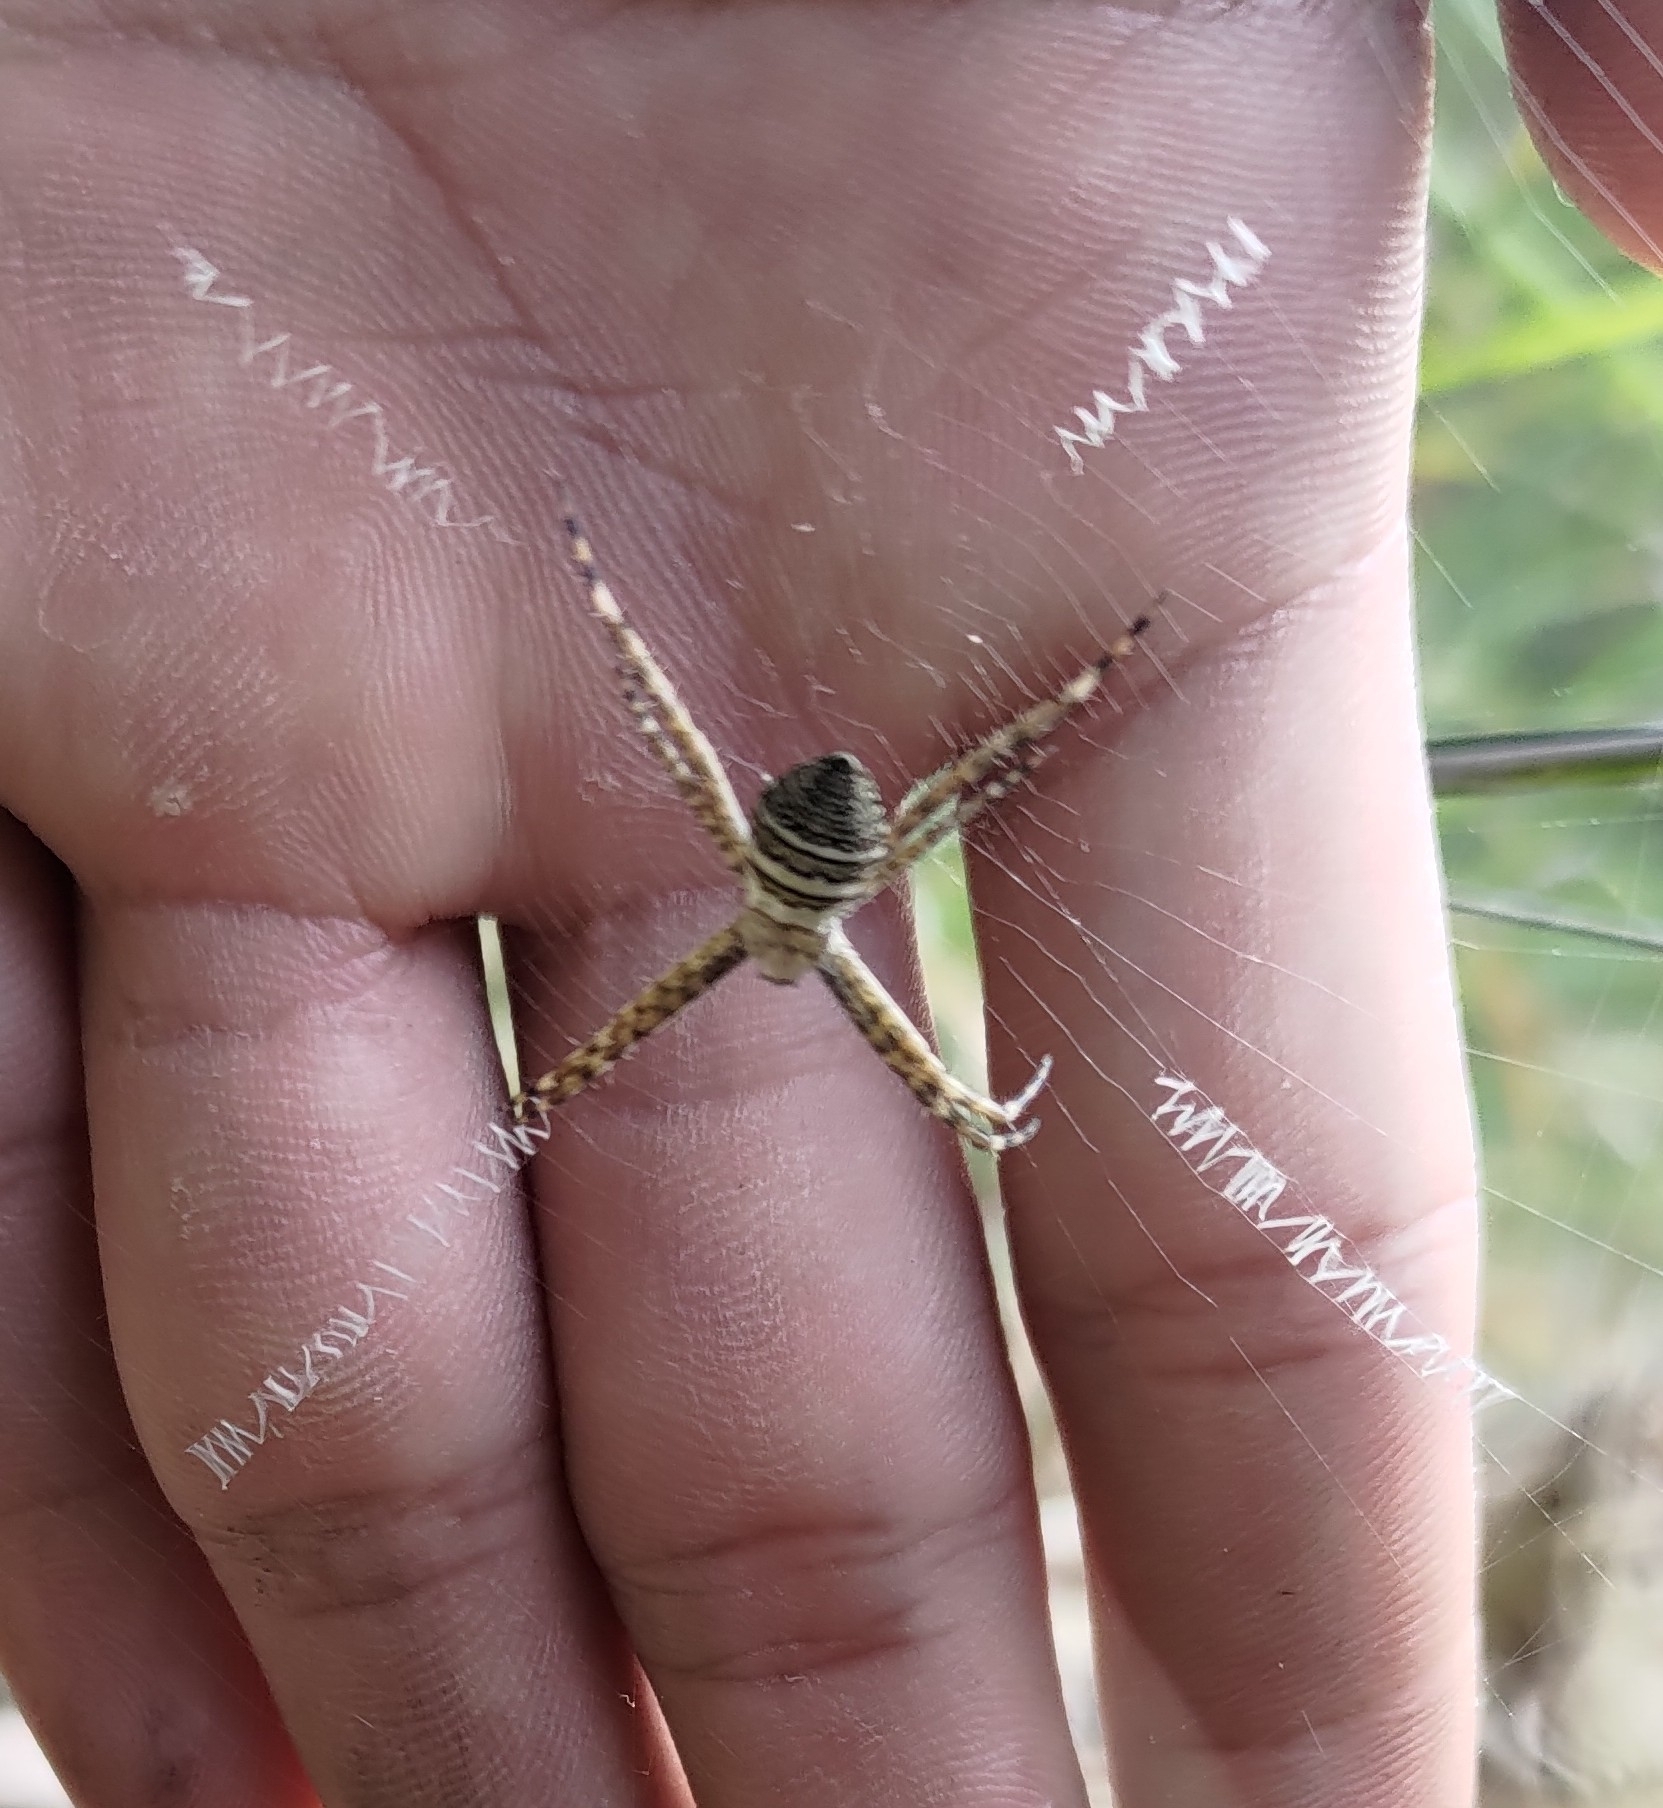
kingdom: Animalia
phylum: Arthropoda
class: Arachnida
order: Araneae
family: Araneidae
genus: Argiope
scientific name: Argiope aemula
